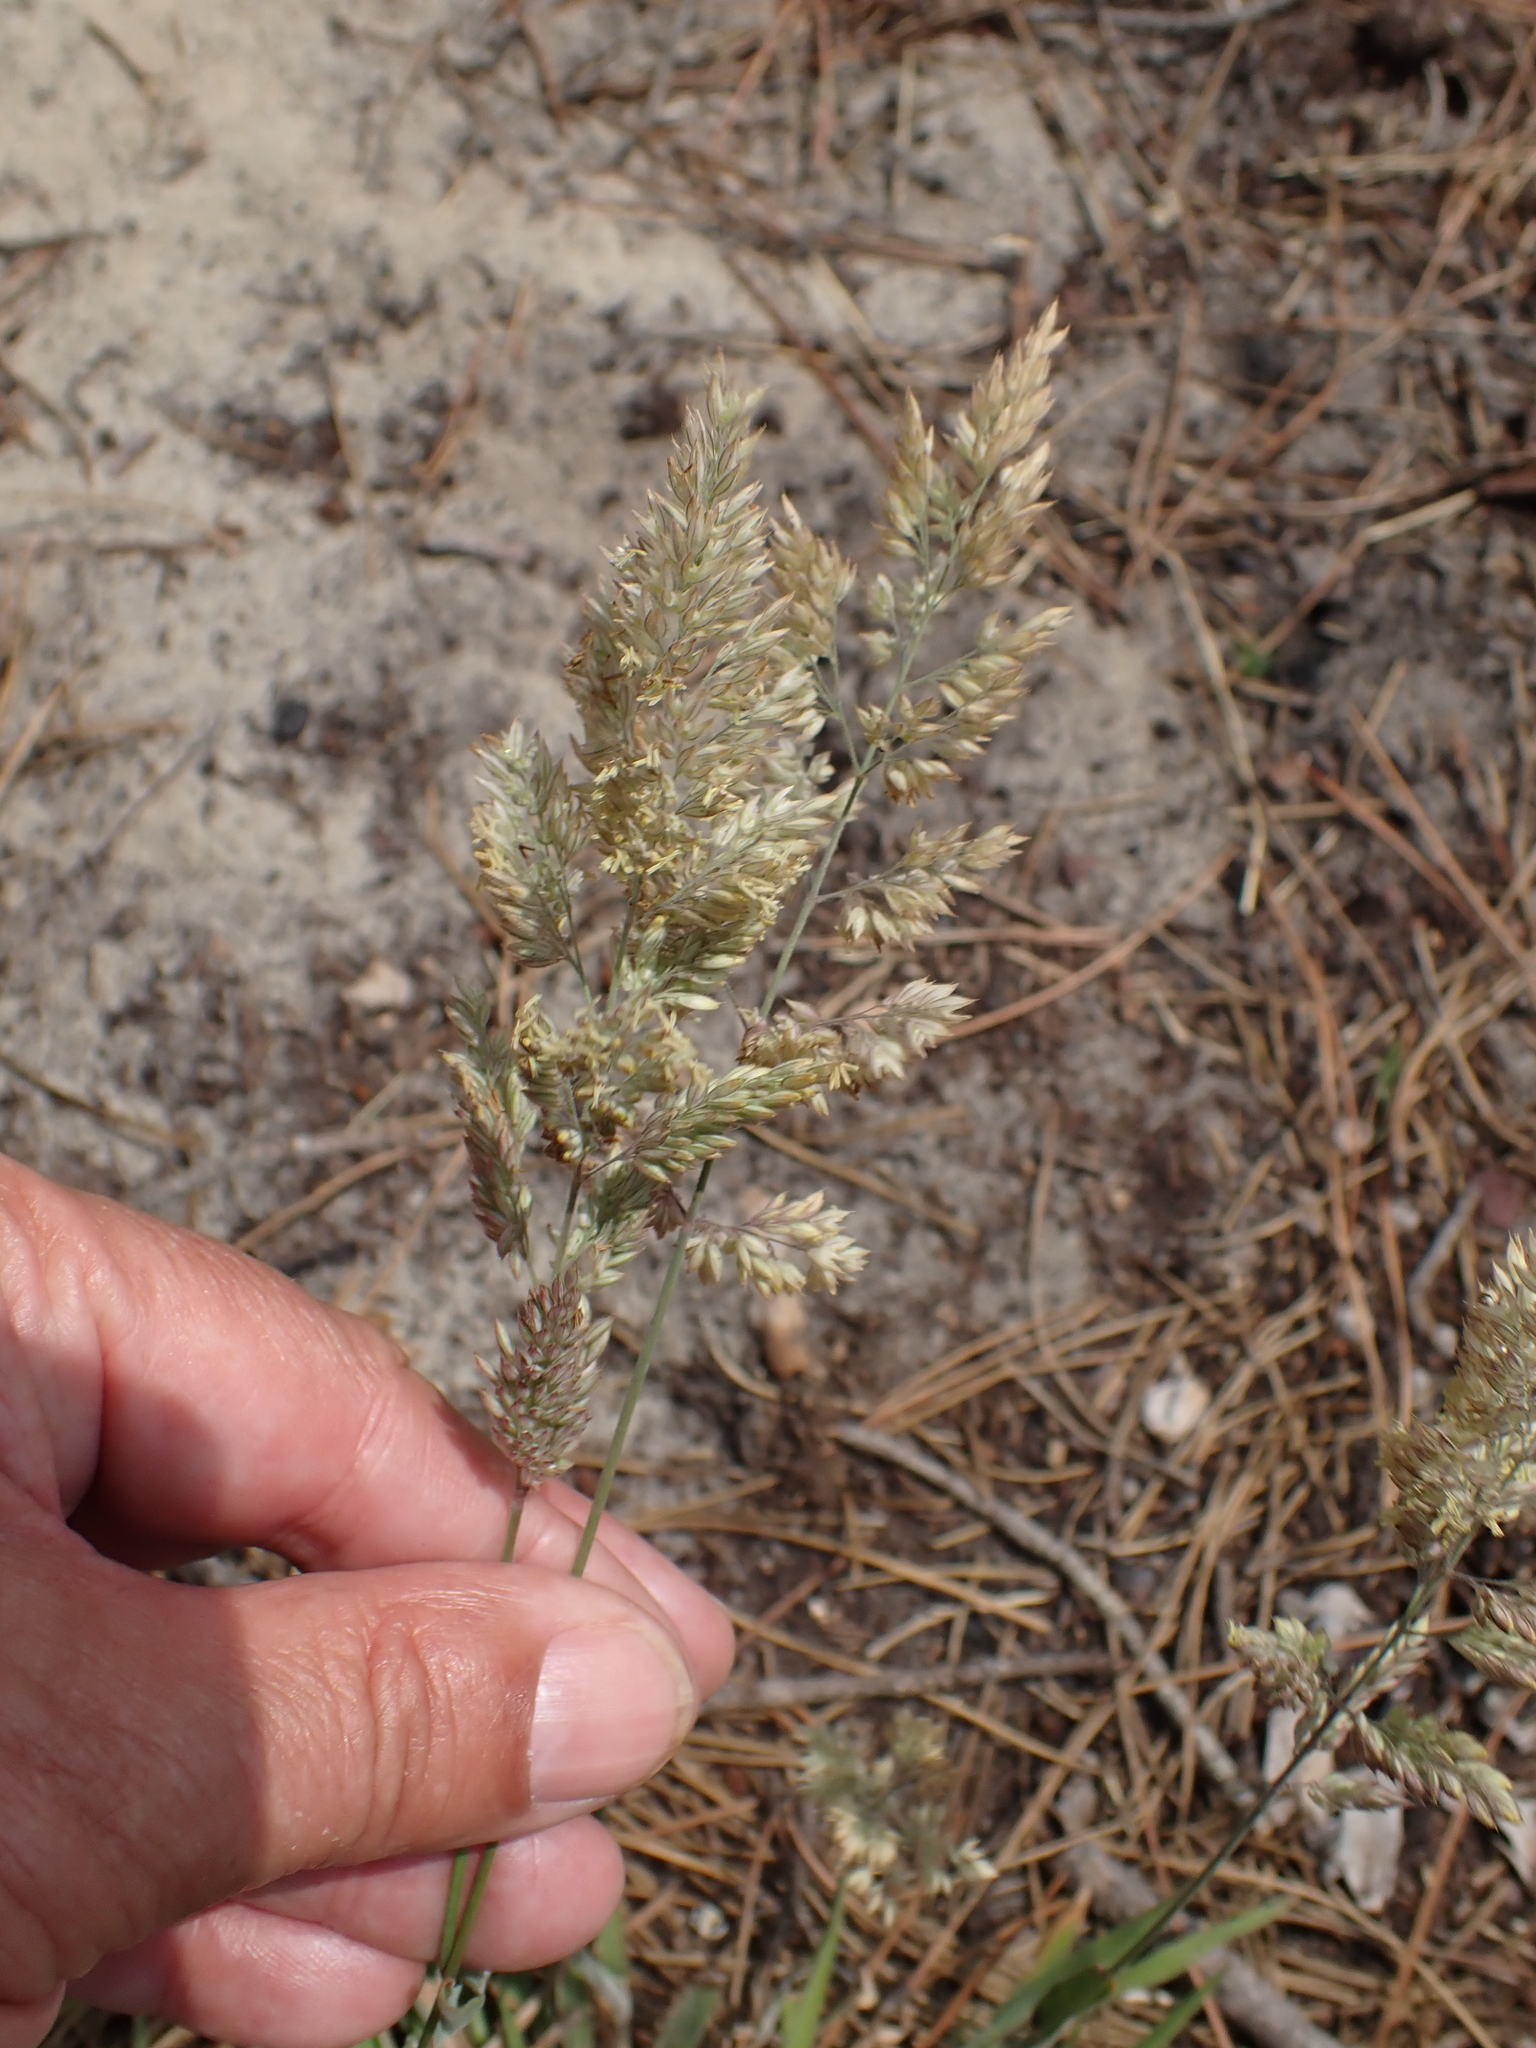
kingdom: Plantae
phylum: Tracheophyta
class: Liliopsida
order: Poales
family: Poaceae
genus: Holcus
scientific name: Holcus lanatus
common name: Yorkshire-fog
